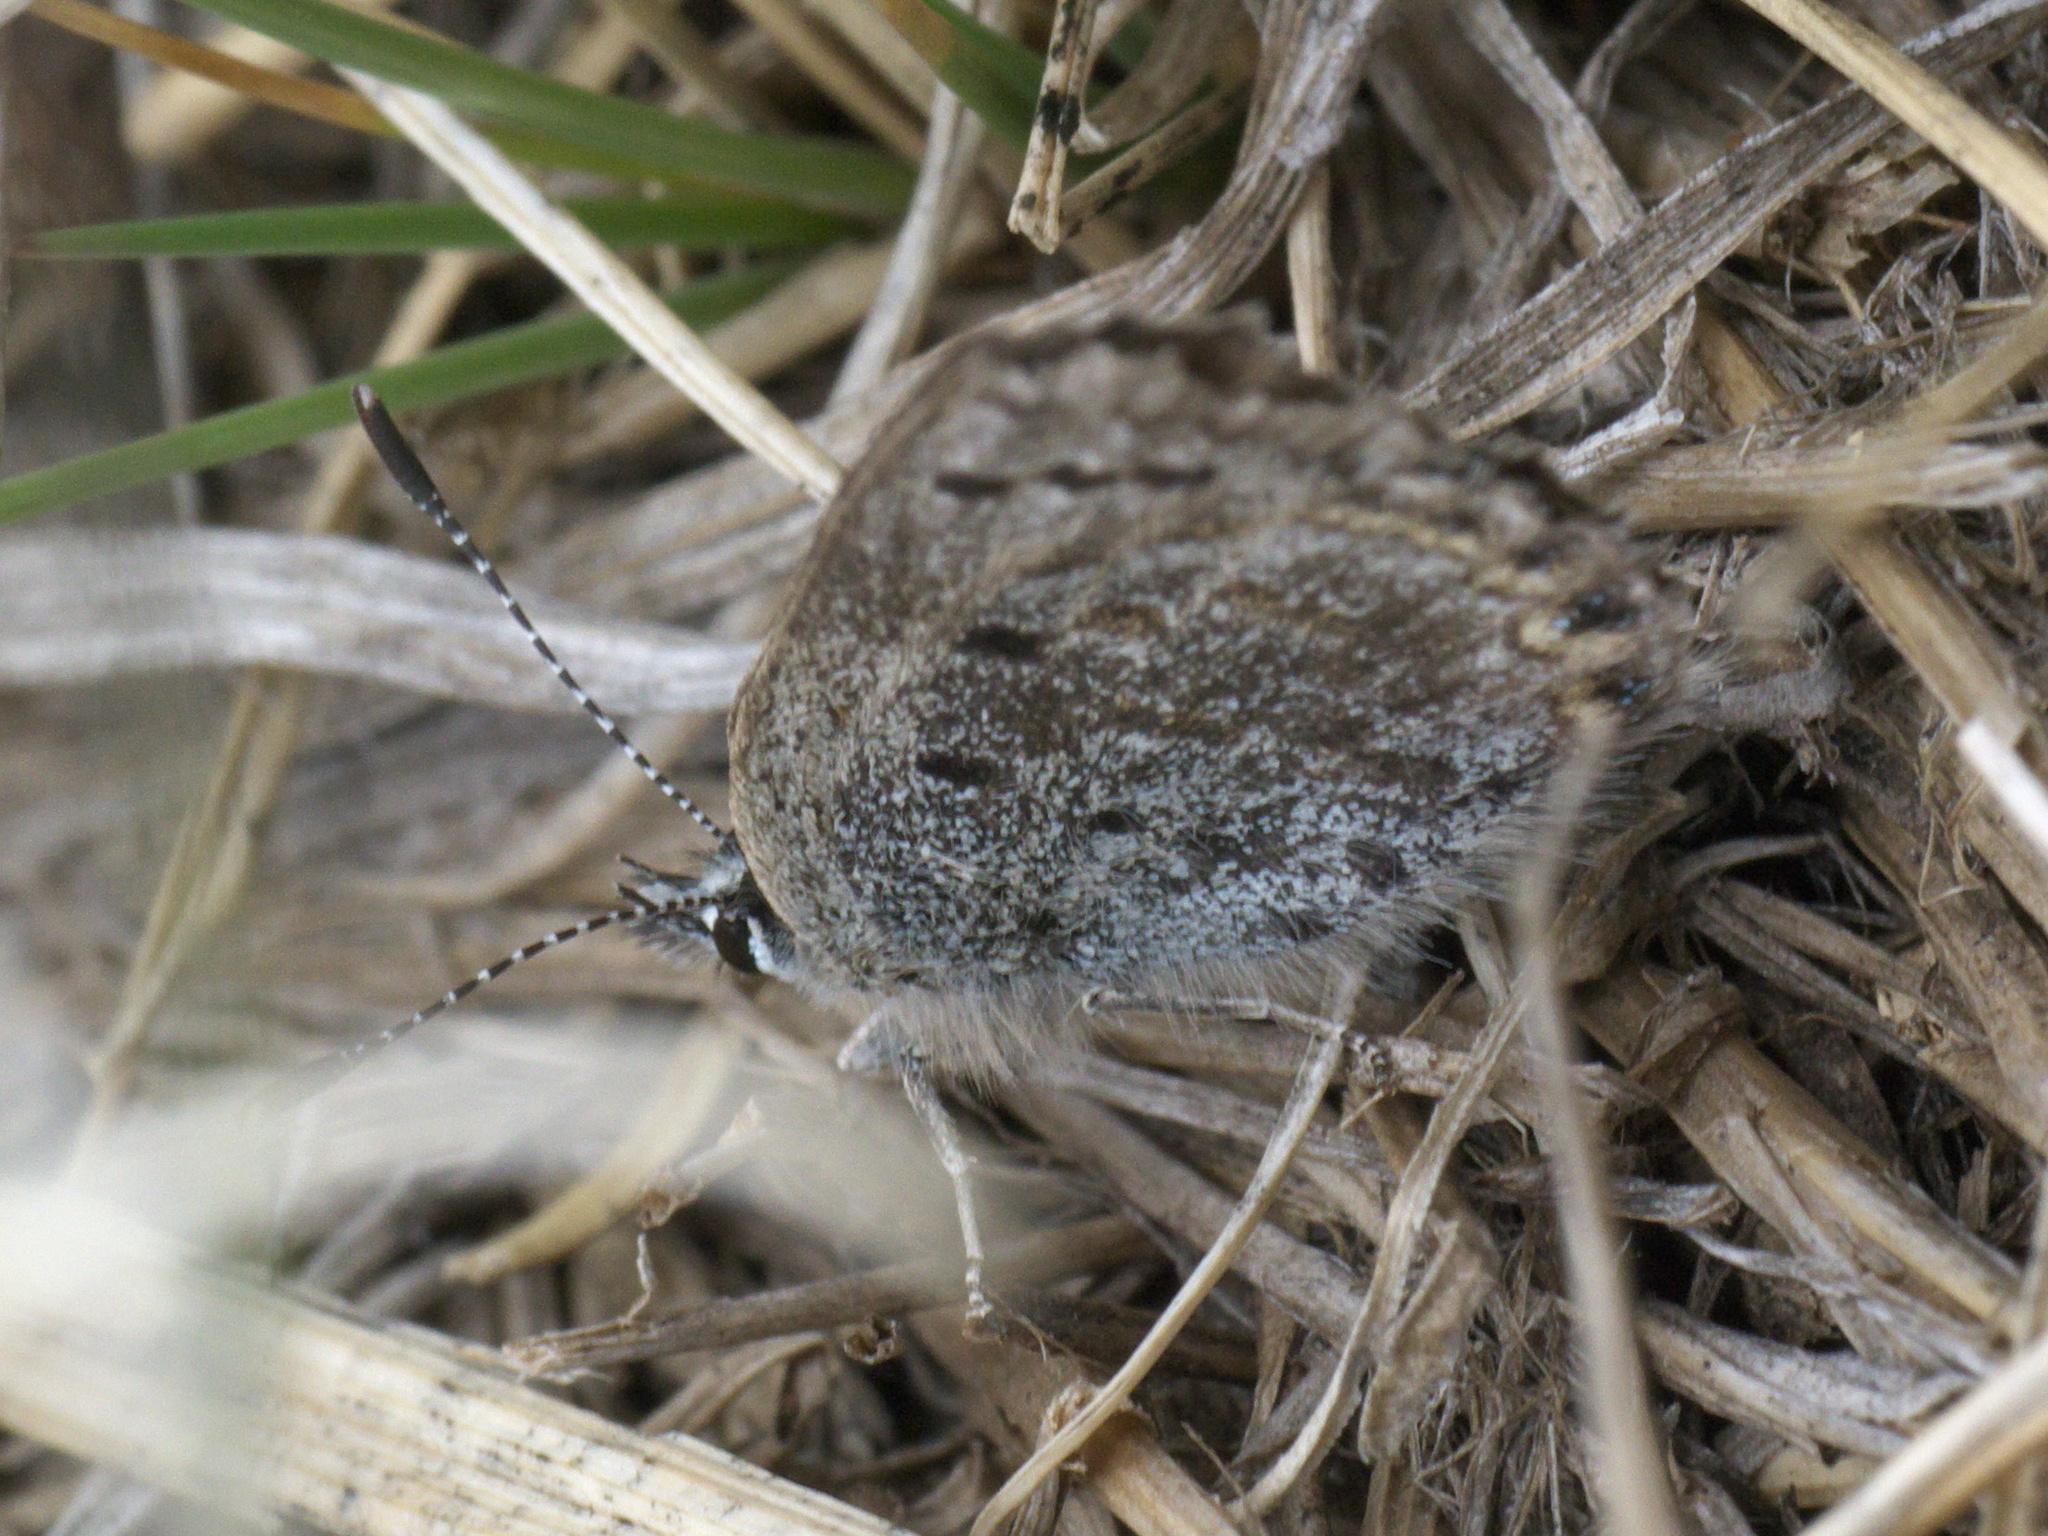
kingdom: Animalia
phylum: Arthropoda
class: Insecta
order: Lepidoptera
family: Lycaenidae
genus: Icaricia
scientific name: Icaricia shasta
